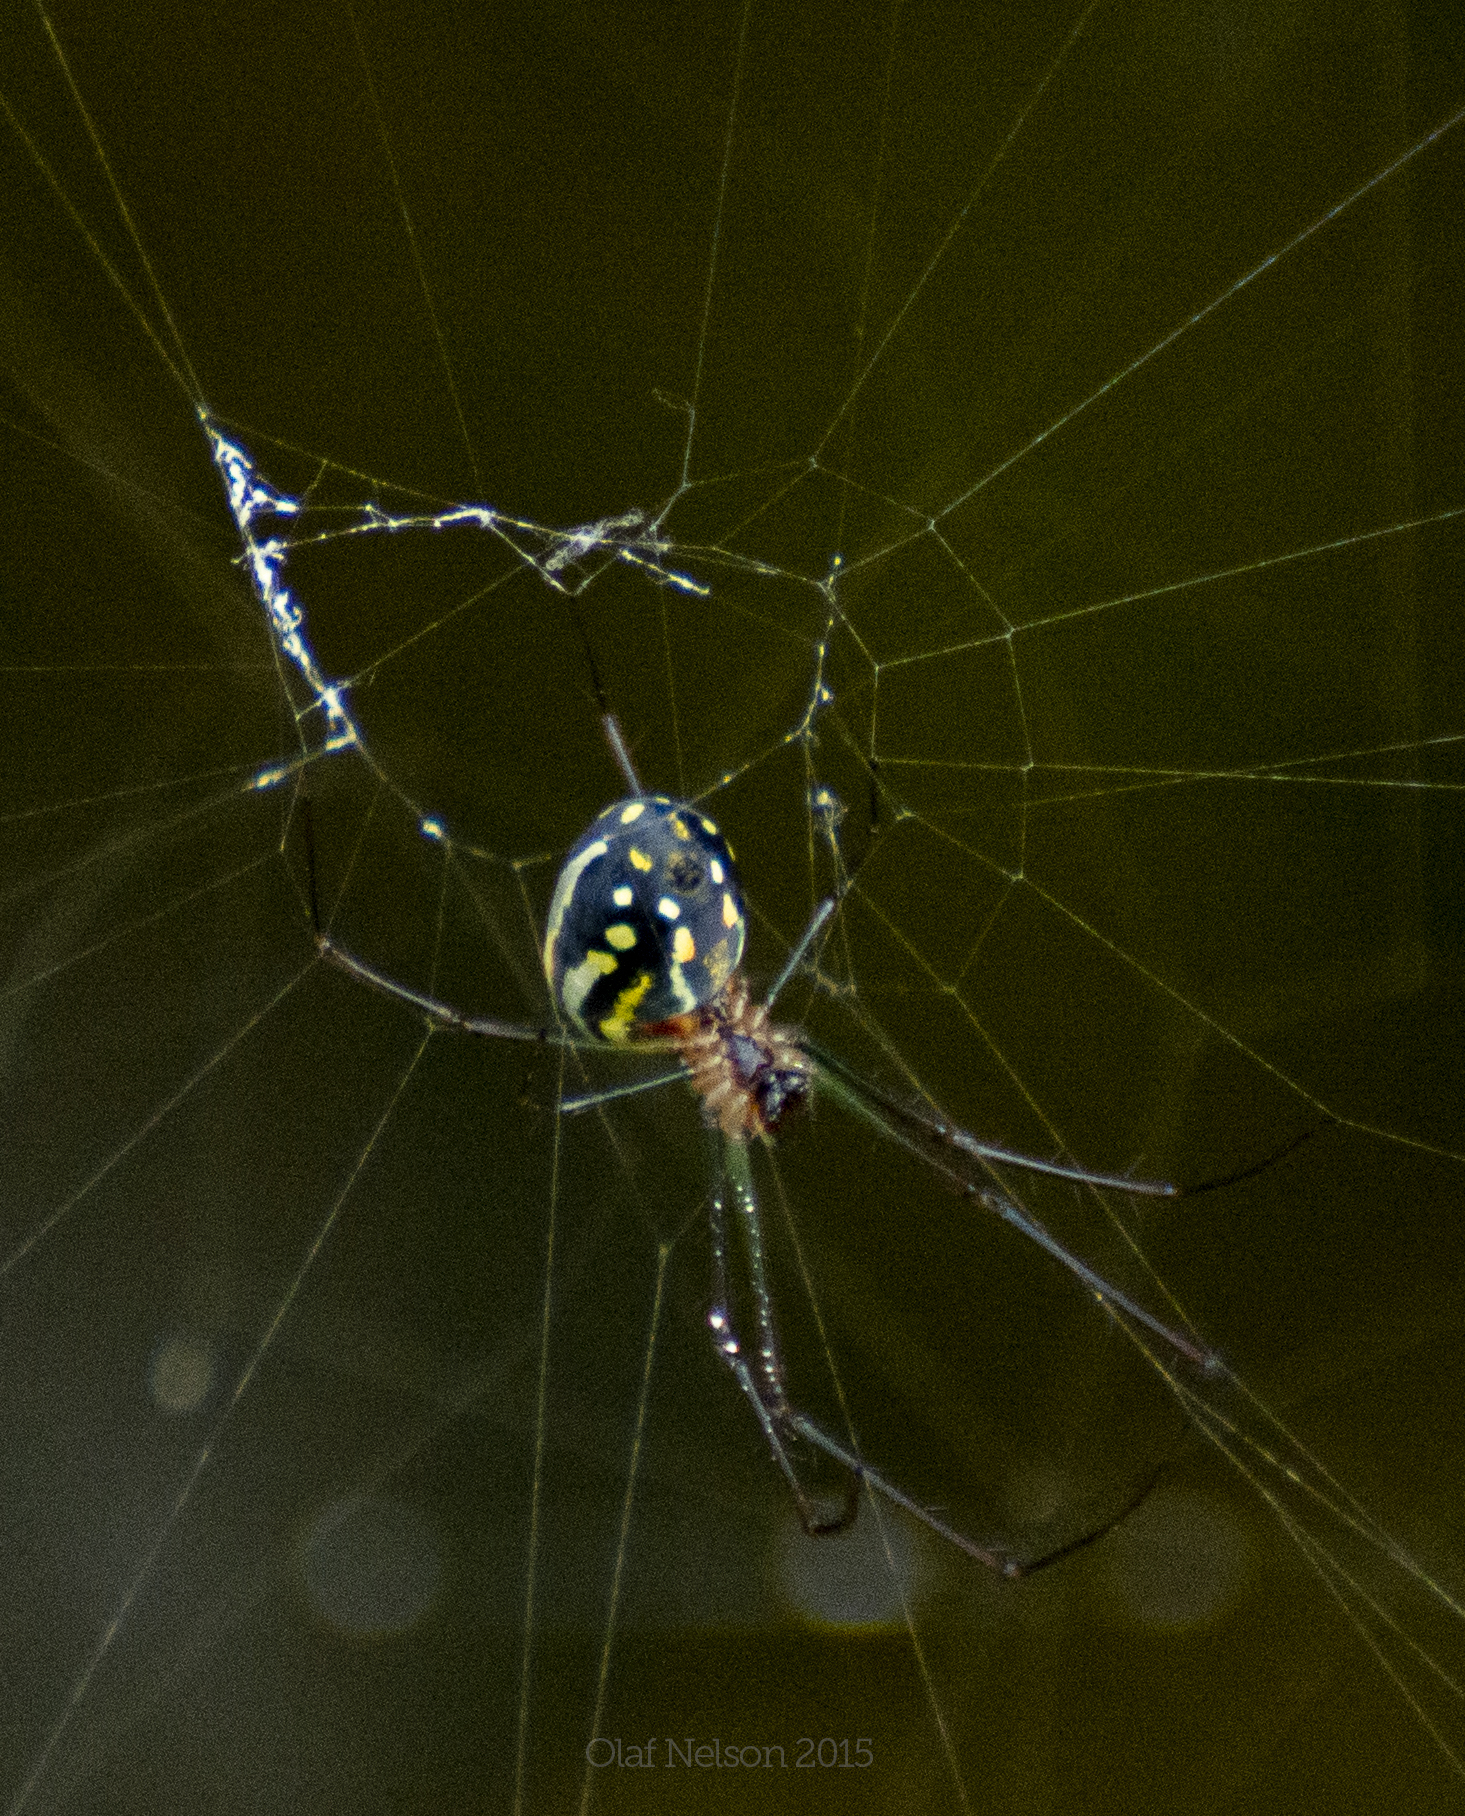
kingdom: Animalia
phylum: Arthropoda
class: Arachnida
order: Araneae
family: Tetragnathidae
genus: Leucauge
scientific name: Leucauge argyra
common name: Longjawed orb weavers
